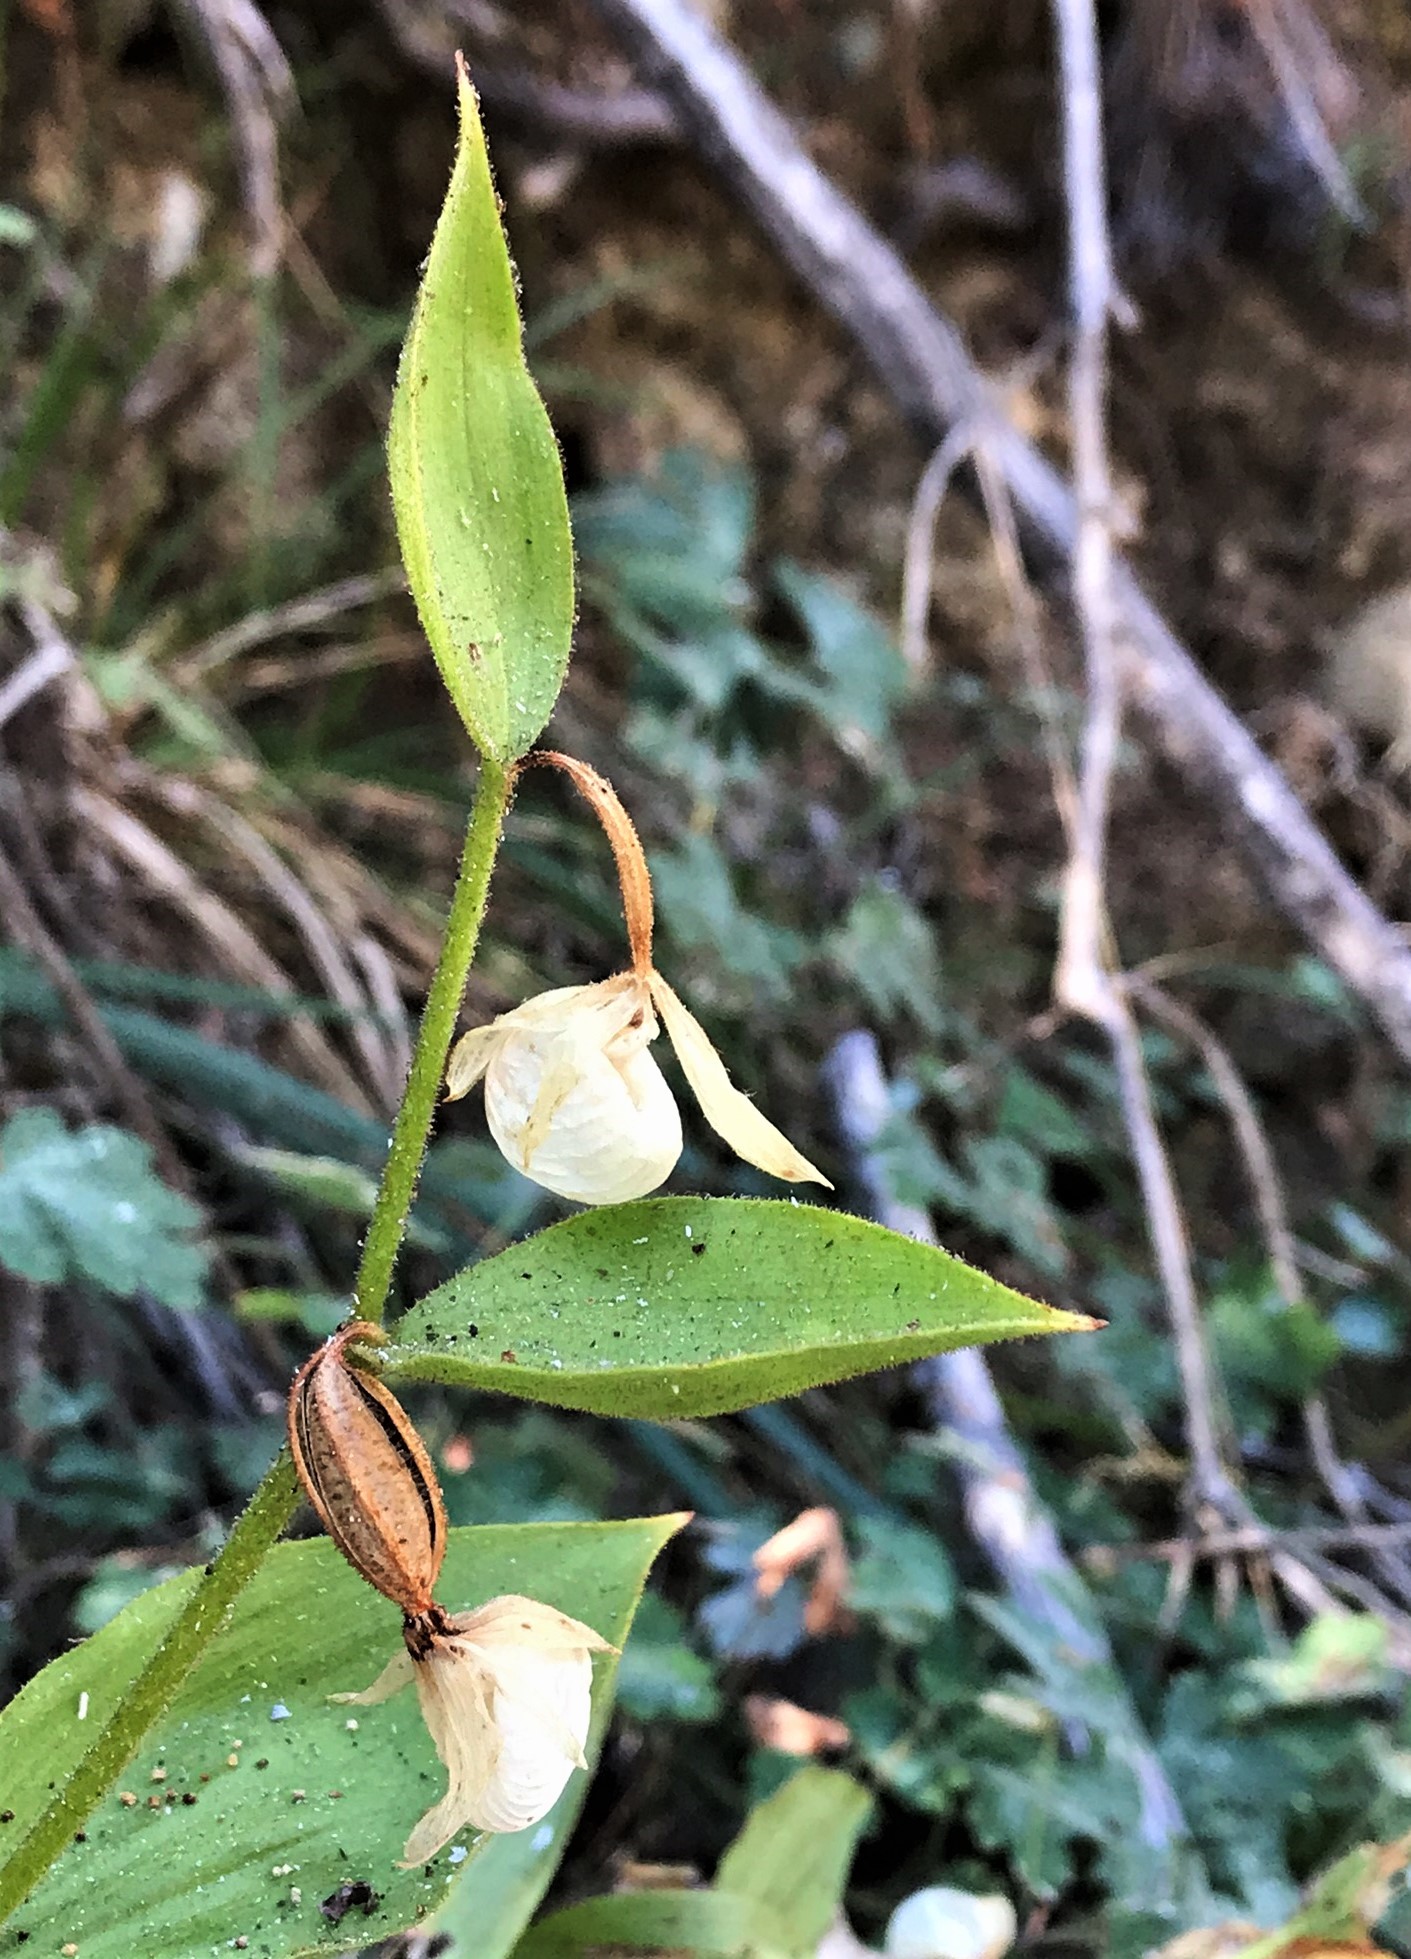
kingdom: Plantae
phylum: Tracheophyta
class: Liliopsida
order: Asparagales
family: Orchidaceae
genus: Cypripedium
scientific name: Cypripedium californicum
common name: California lady's slipper
